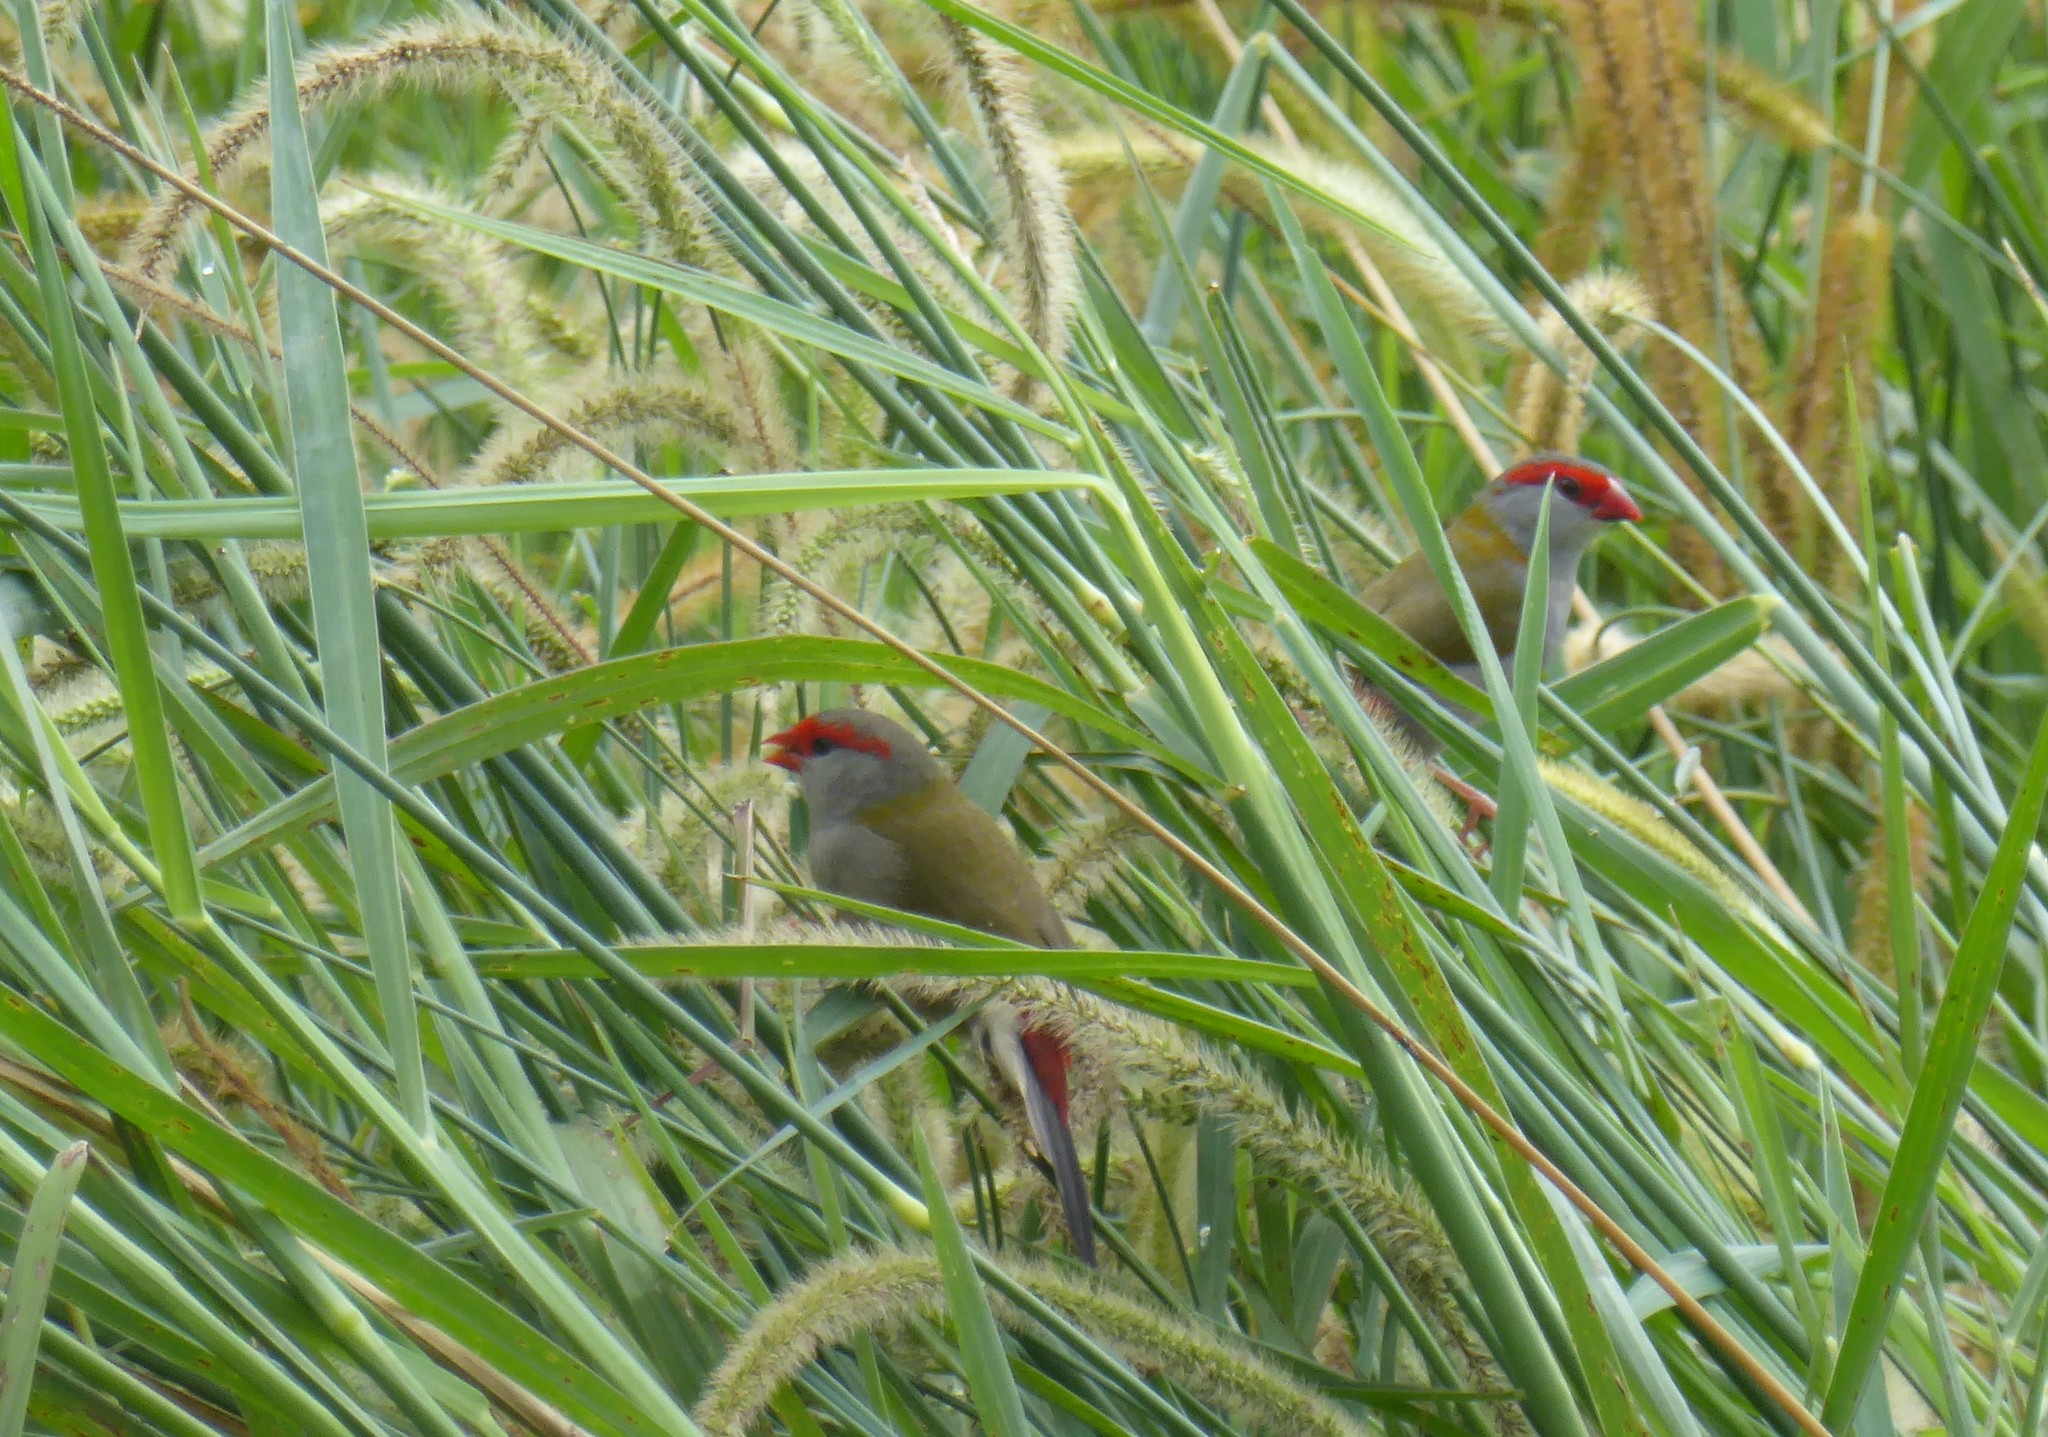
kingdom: Animalia
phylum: Chordata
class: Aves
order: Passeriformes
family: Estrildidae
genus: Neochmia
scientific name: Neochmia temporalis
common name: Red-browed finch
